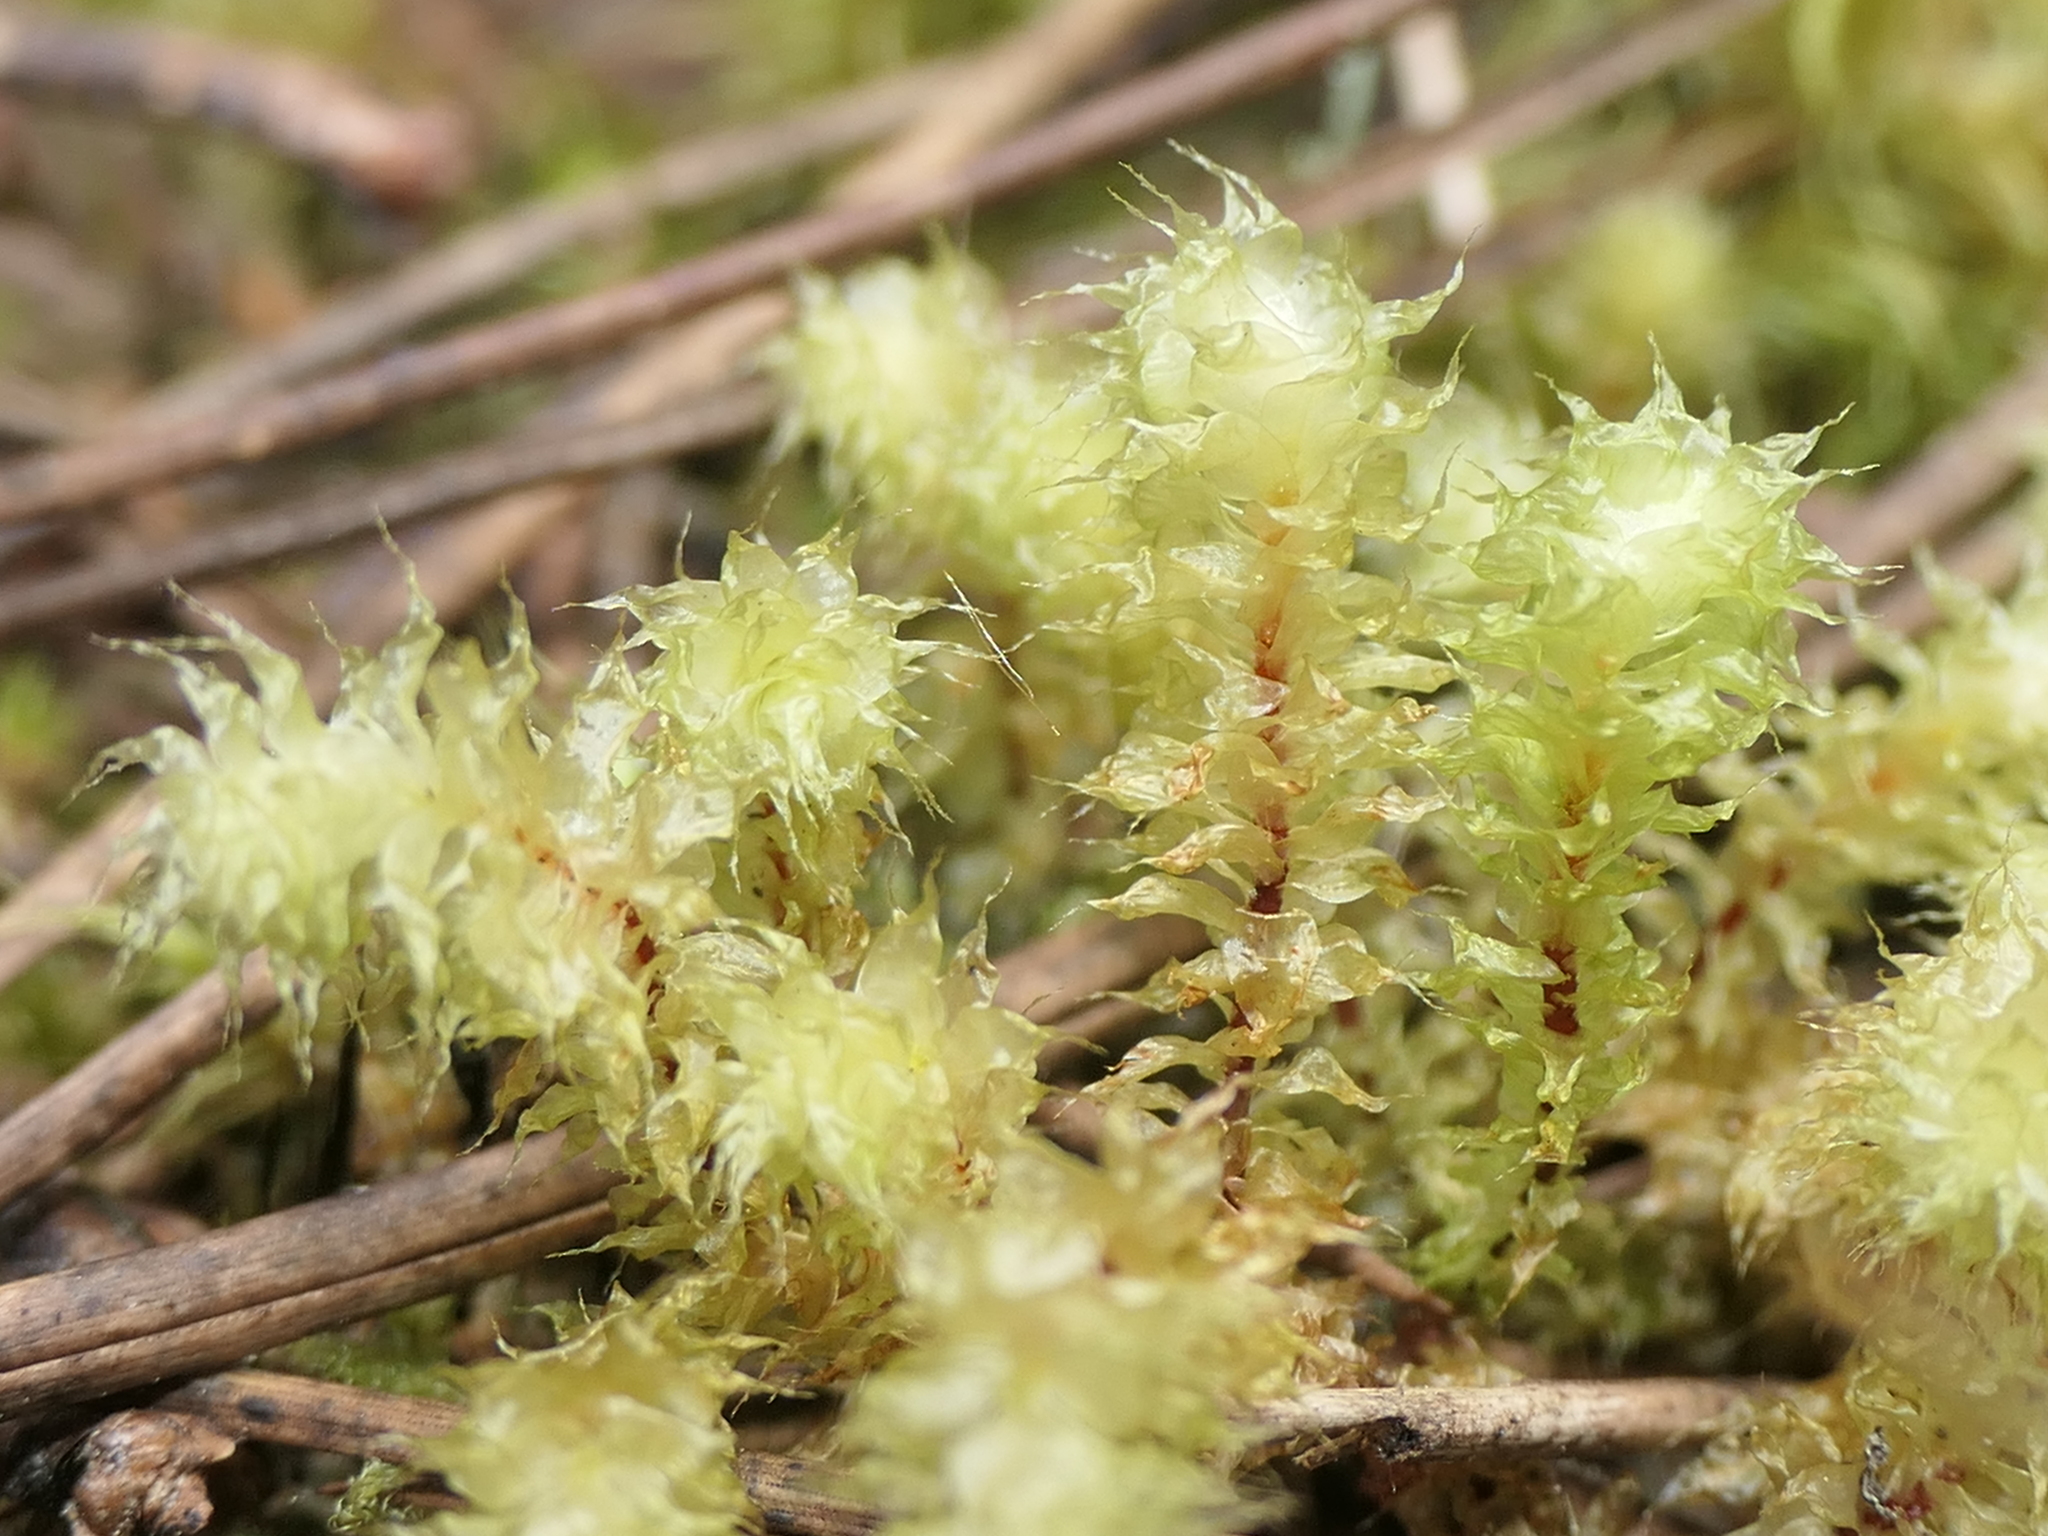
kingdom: Plantae
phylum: Bryophyta
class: Bryopsida
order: Ptychomniales
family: Ptychomniaceae
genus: Ptychomnion
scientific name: Ptychomnion aciculare
